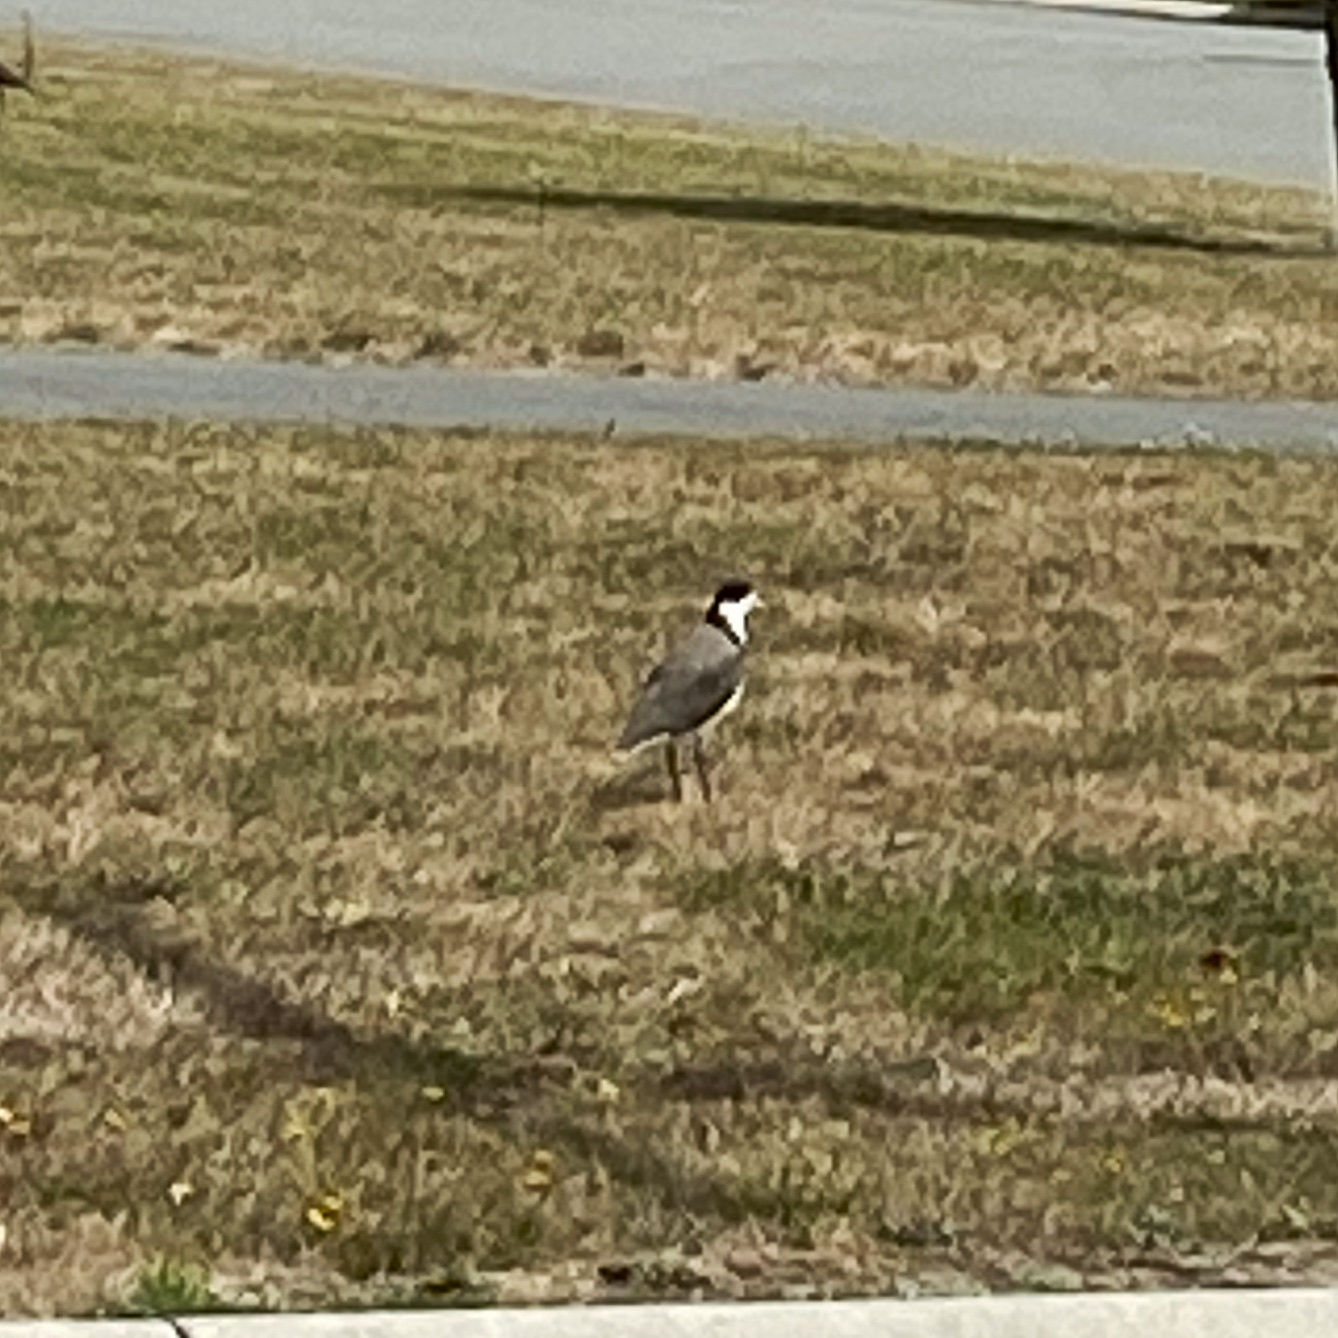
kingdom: Animalia
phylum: Chordata
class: Aves
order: Charadriiformes
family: Charadriidae
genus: Vanellus
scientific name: Vanellus miles
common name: Masked lapwing
